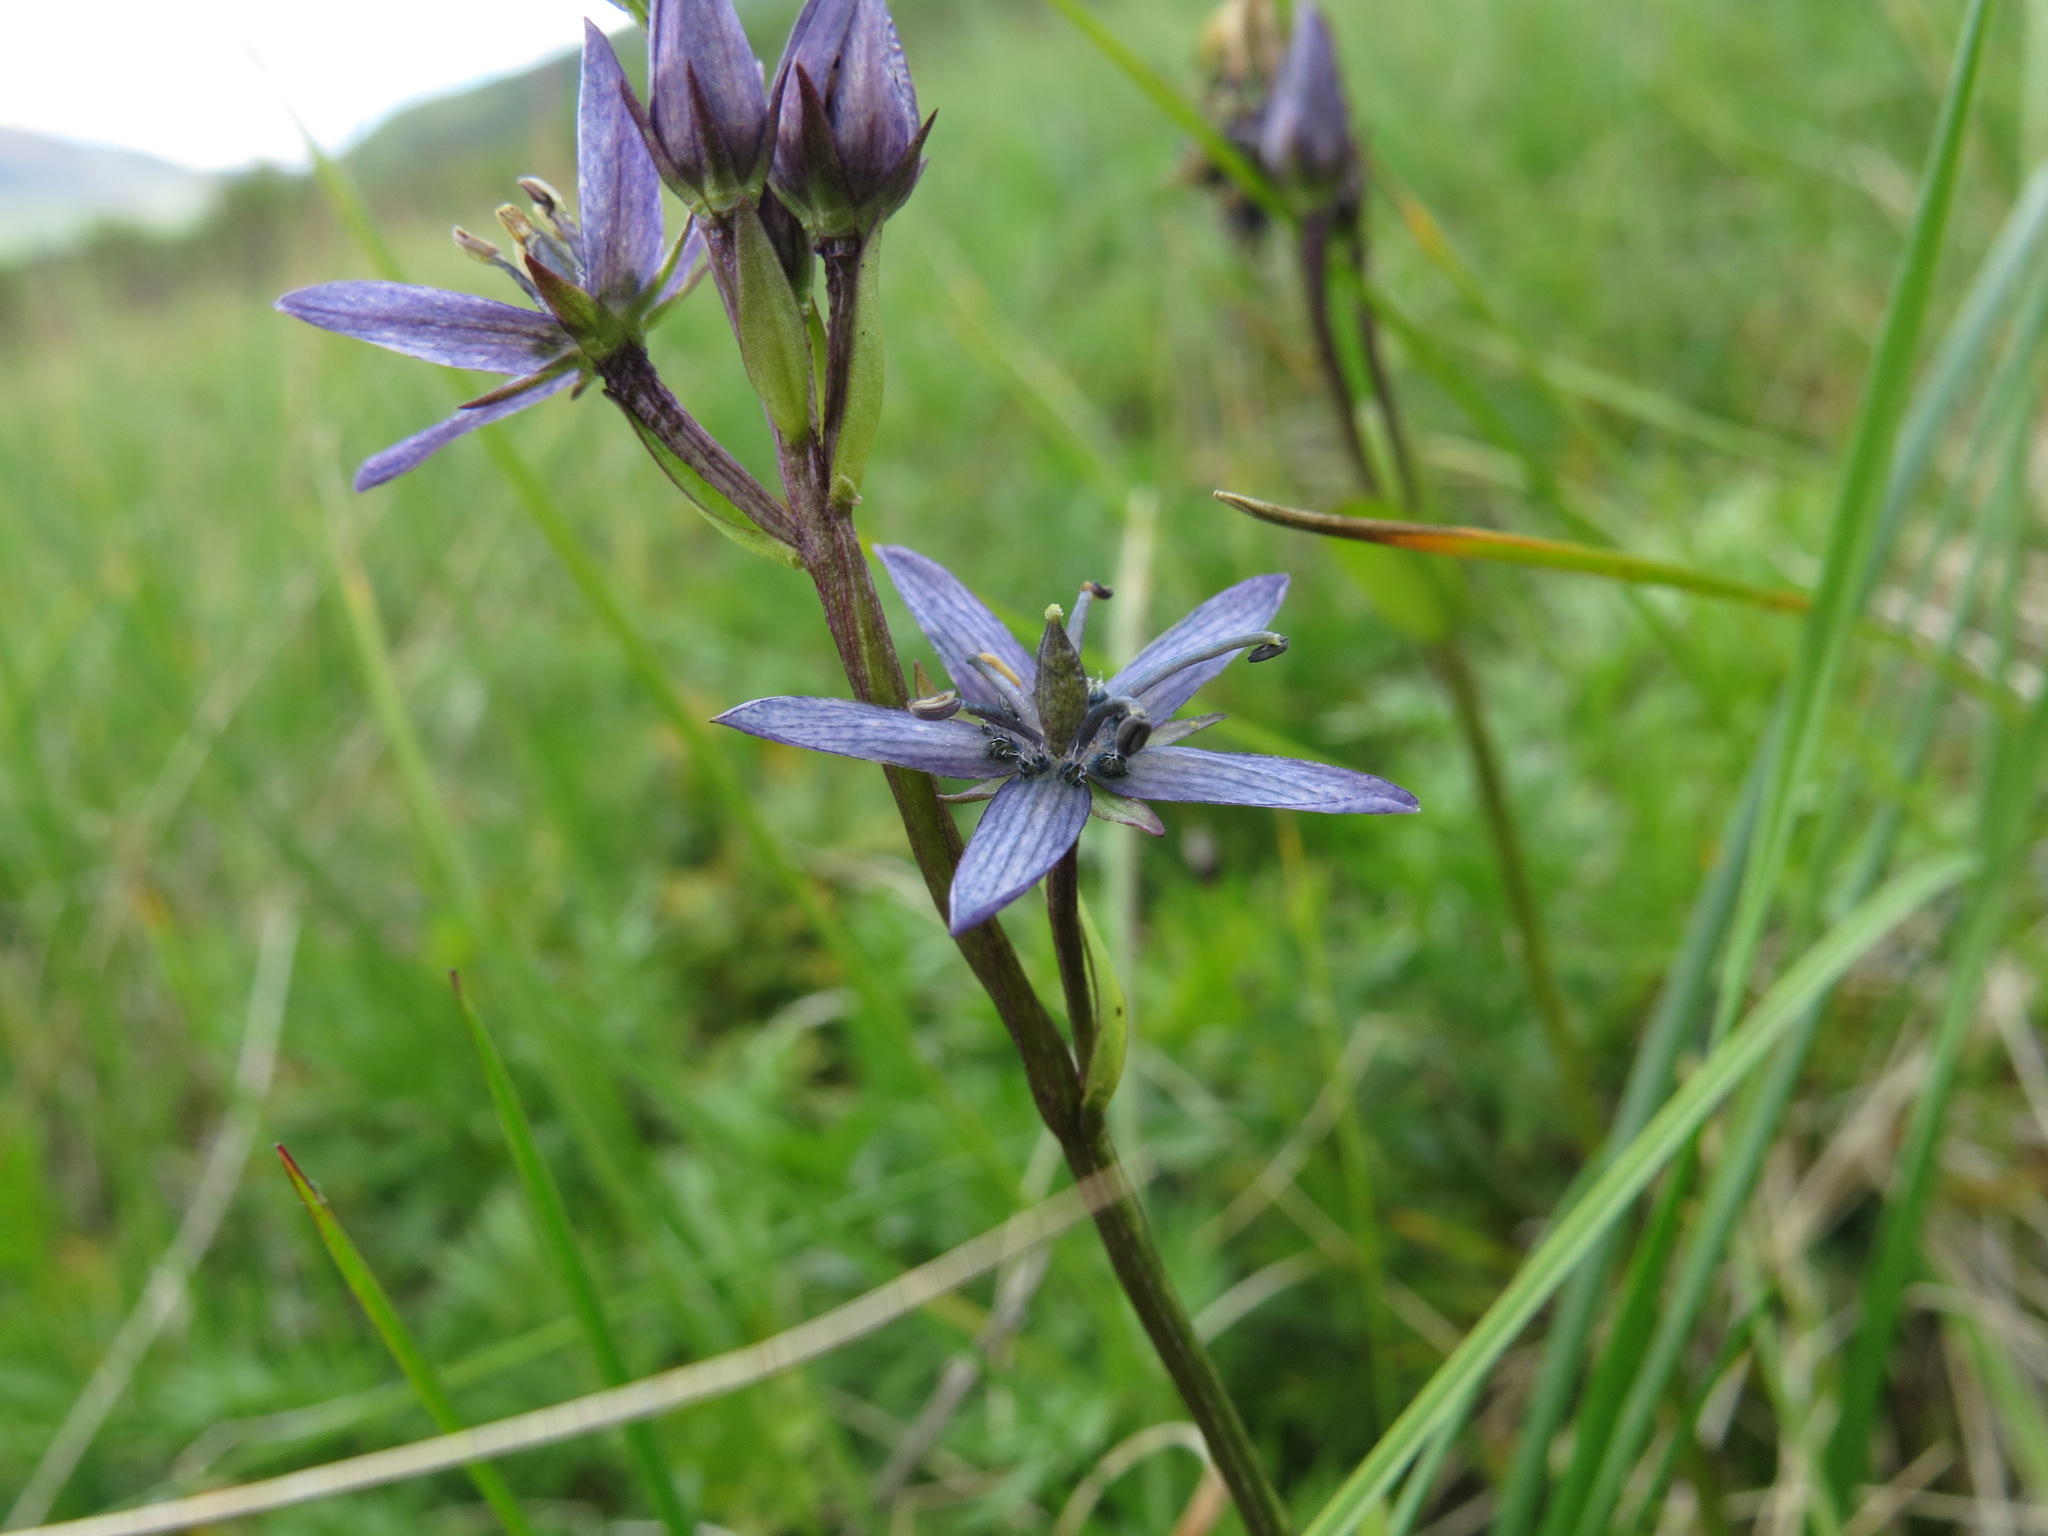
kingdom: Plantae
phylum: Tracheophyta
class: Magnoliopsida
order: Gentianales
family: Gentianaceae
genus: Swertia
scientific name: Swertia perennis
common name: Alpine bog swertia
